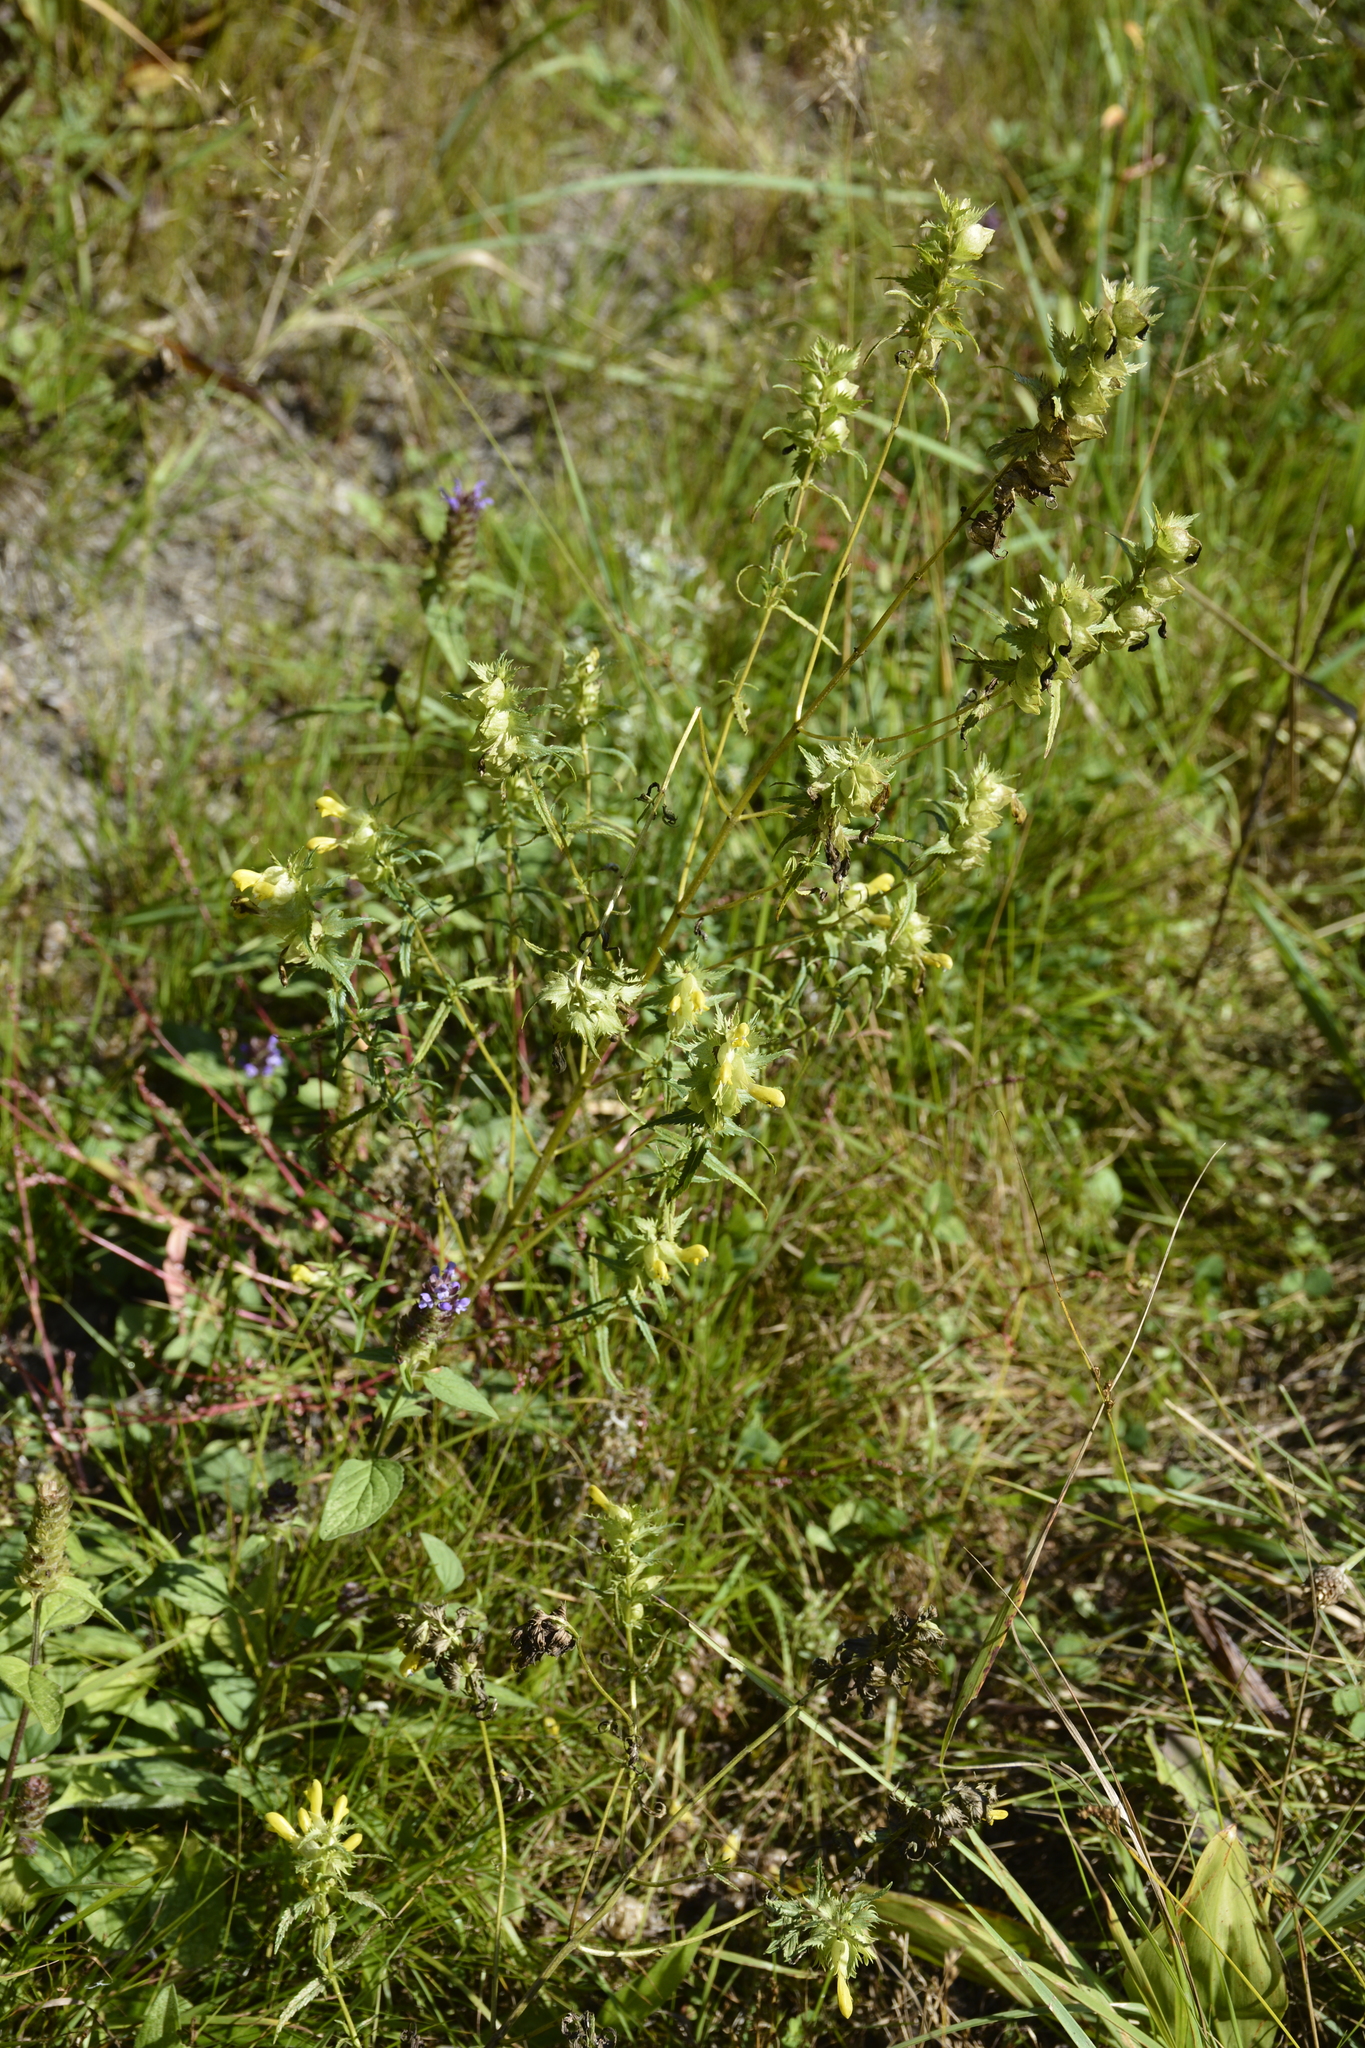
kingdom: Plantae
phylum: Tracheophyta
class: Magnoliopsida
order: Lamiales
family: Orobanchaceae
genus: Rhinanthus
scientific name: Rhinanthus serotinus
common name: Late-flowering yellow rattle
